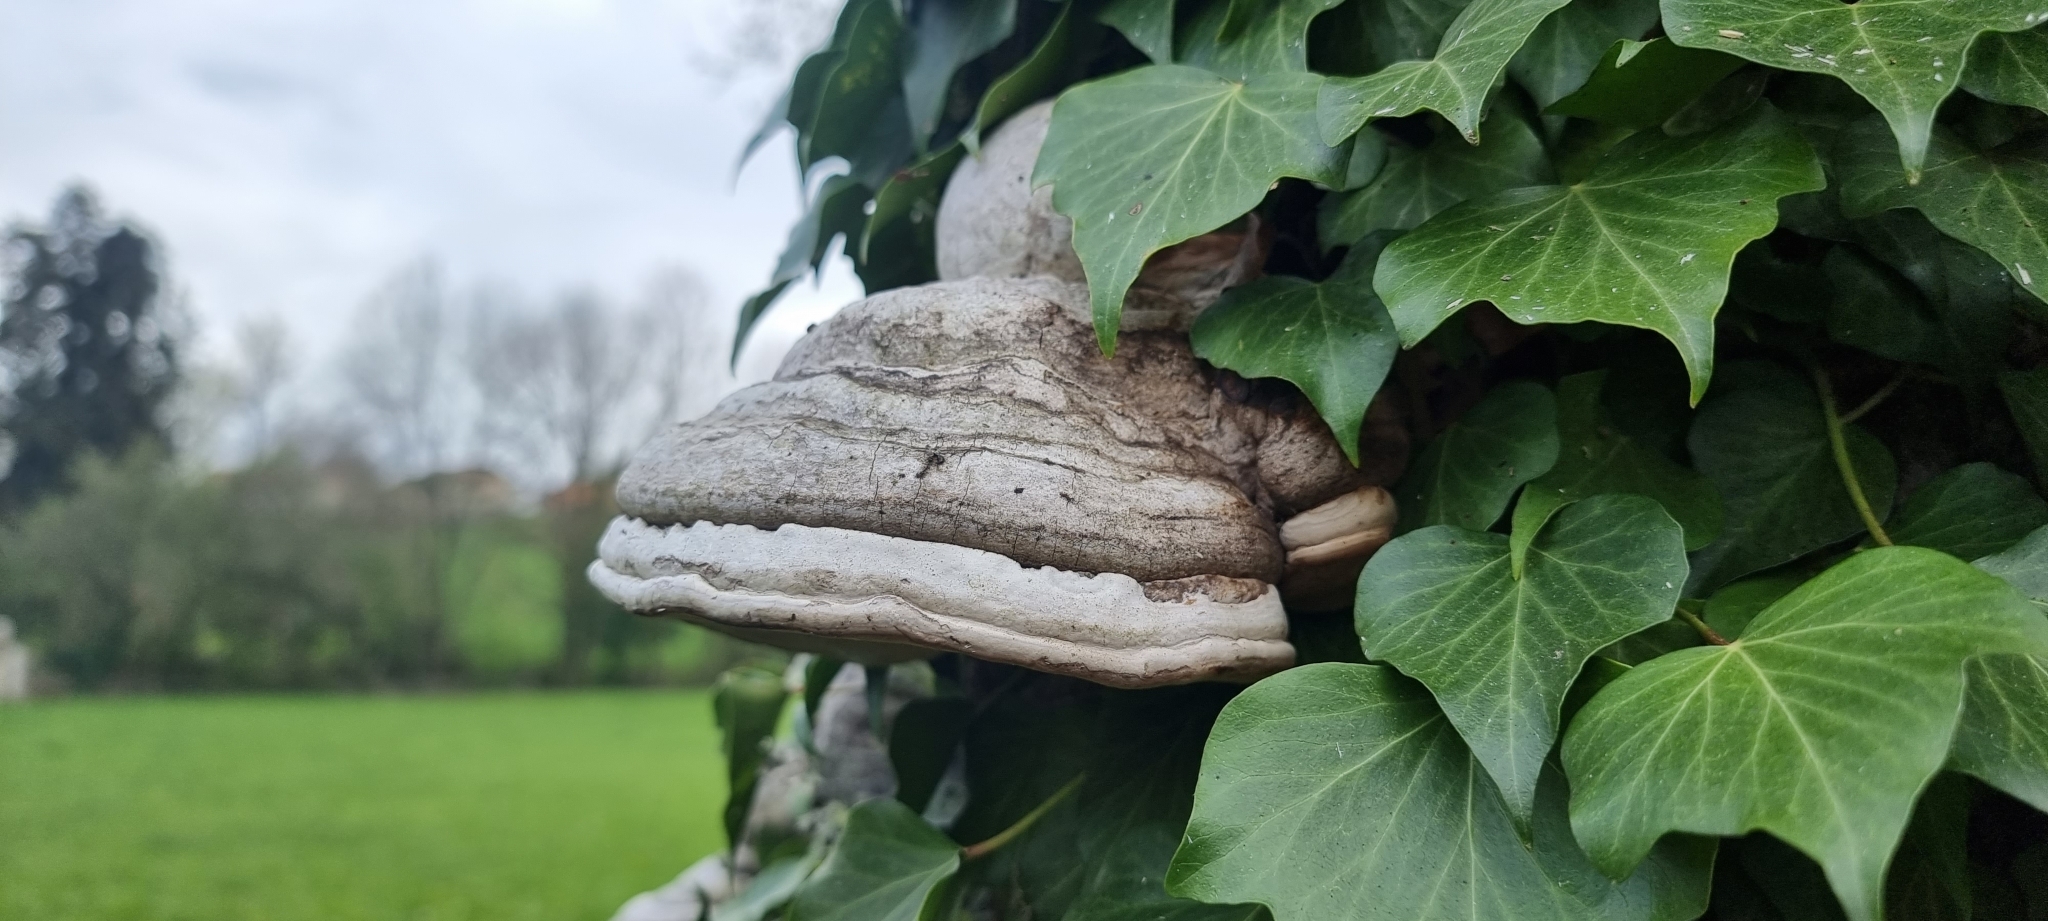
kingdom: Fungi
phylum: Basidiomycota
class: Agaricomycetes
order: Polyporales
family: Polyporaceae
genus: Fomes
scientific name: Fomes fomentarius
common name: Hoof fungus
